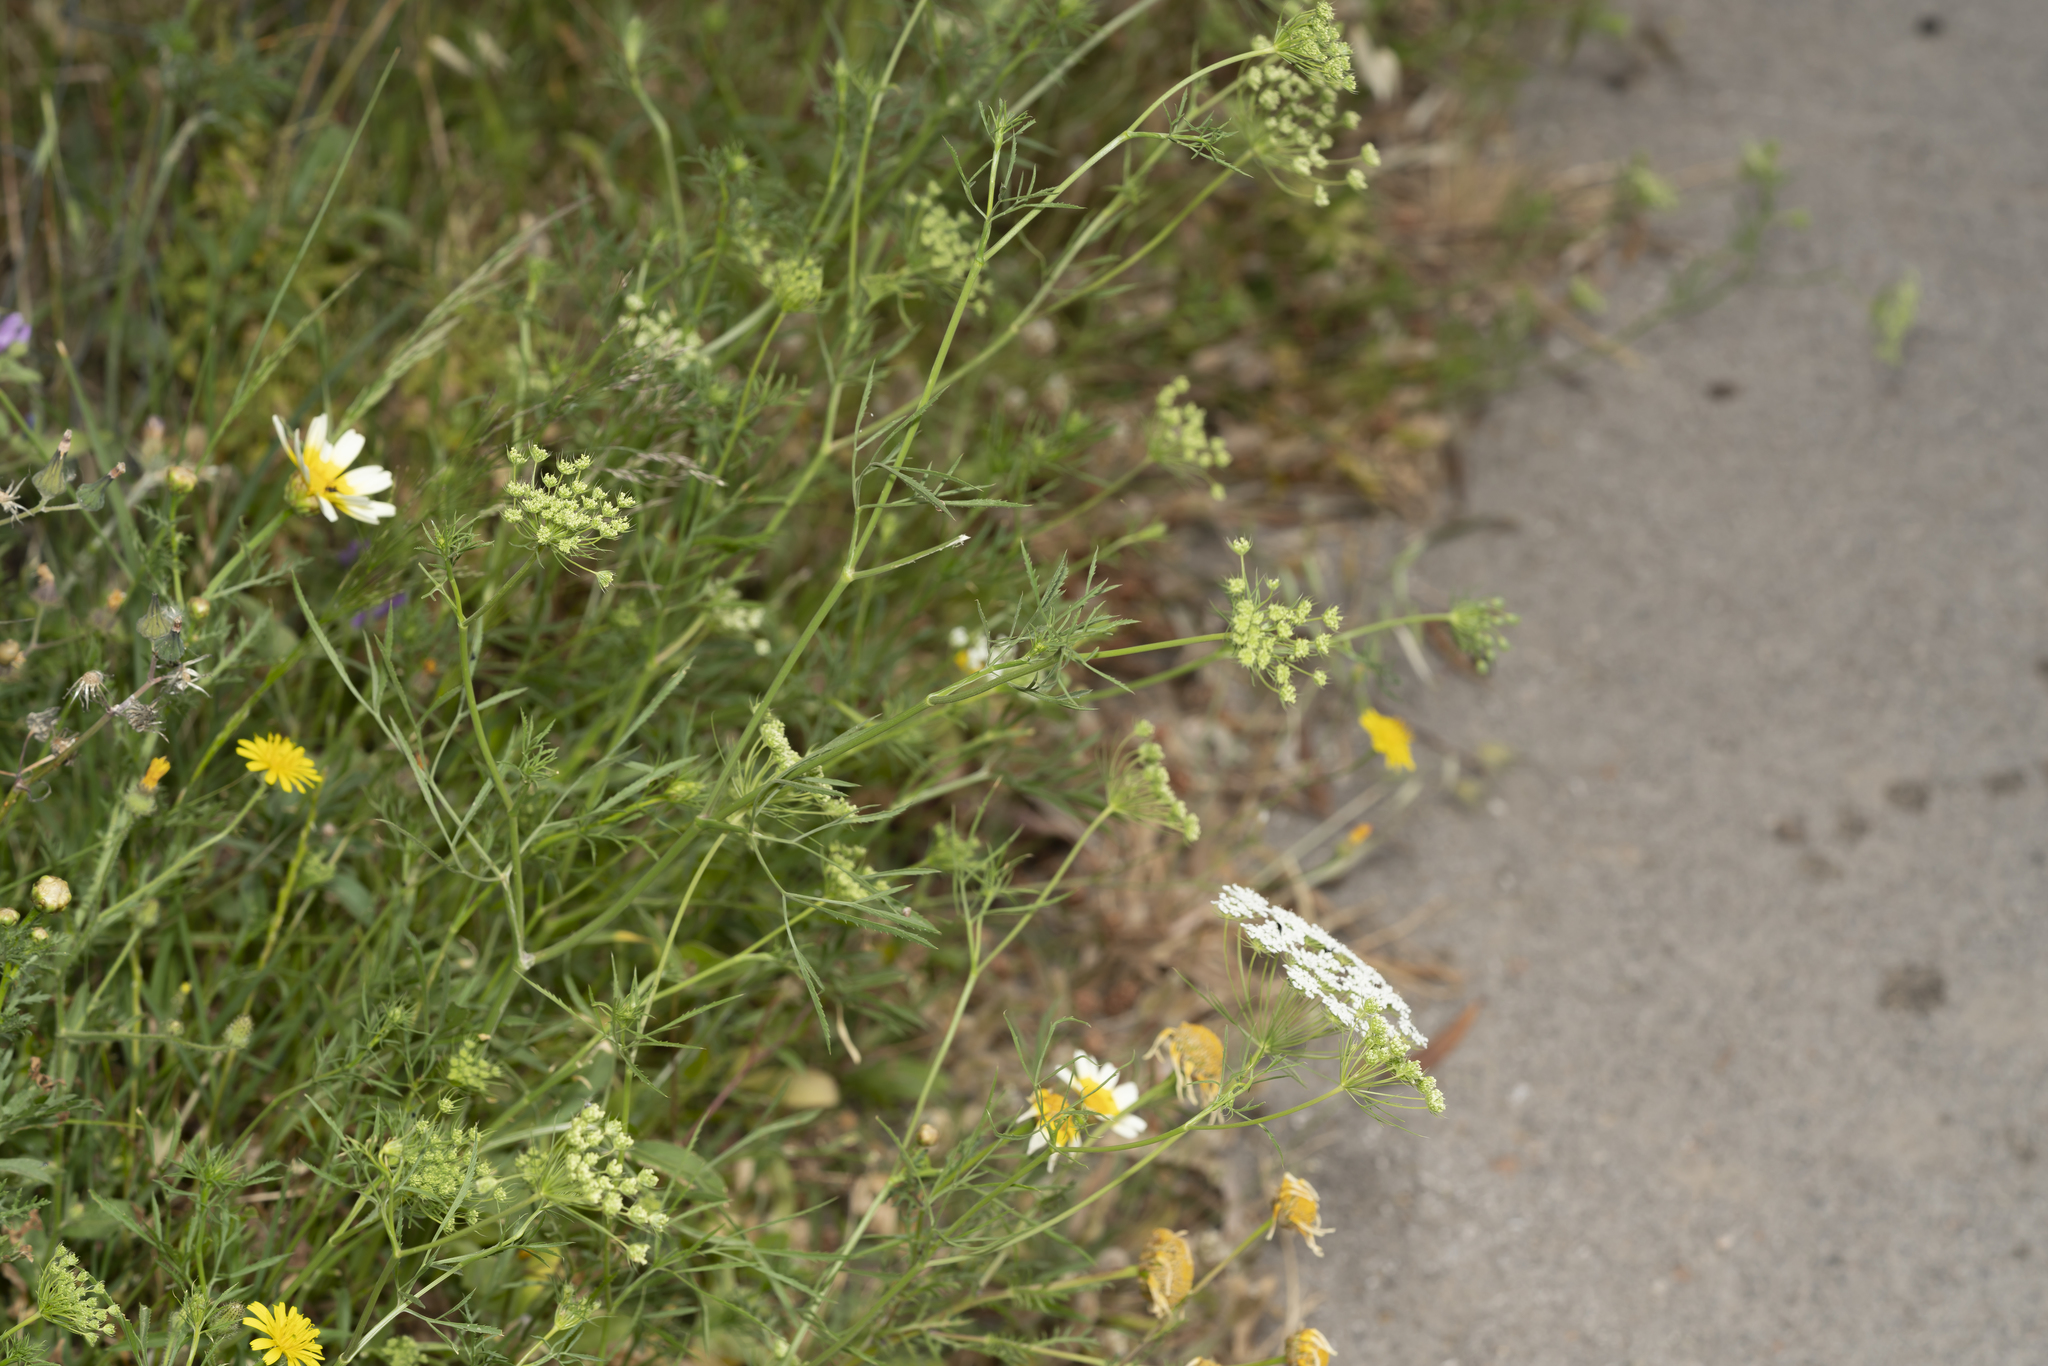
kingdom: Plantae
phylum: Tracheophyta
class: Magnoliopsida
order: Apiales
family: Apiaceae
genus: Ammi
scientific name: Ammi majus
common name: Bullwort
